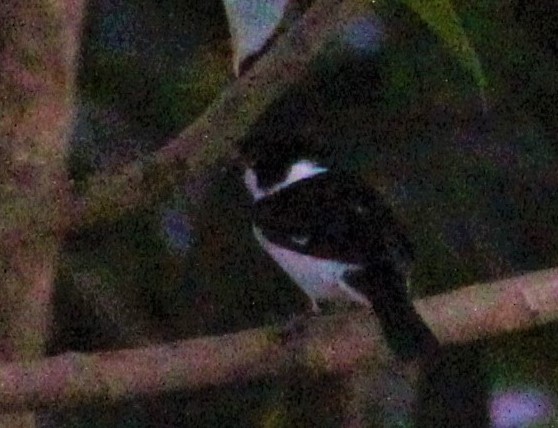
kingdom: Animalia
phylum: Chordata
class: Aves
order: Passeriformes
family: Thraupidae
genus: Sporophila
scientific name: Sporophila corvina
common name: Variable seedeater
